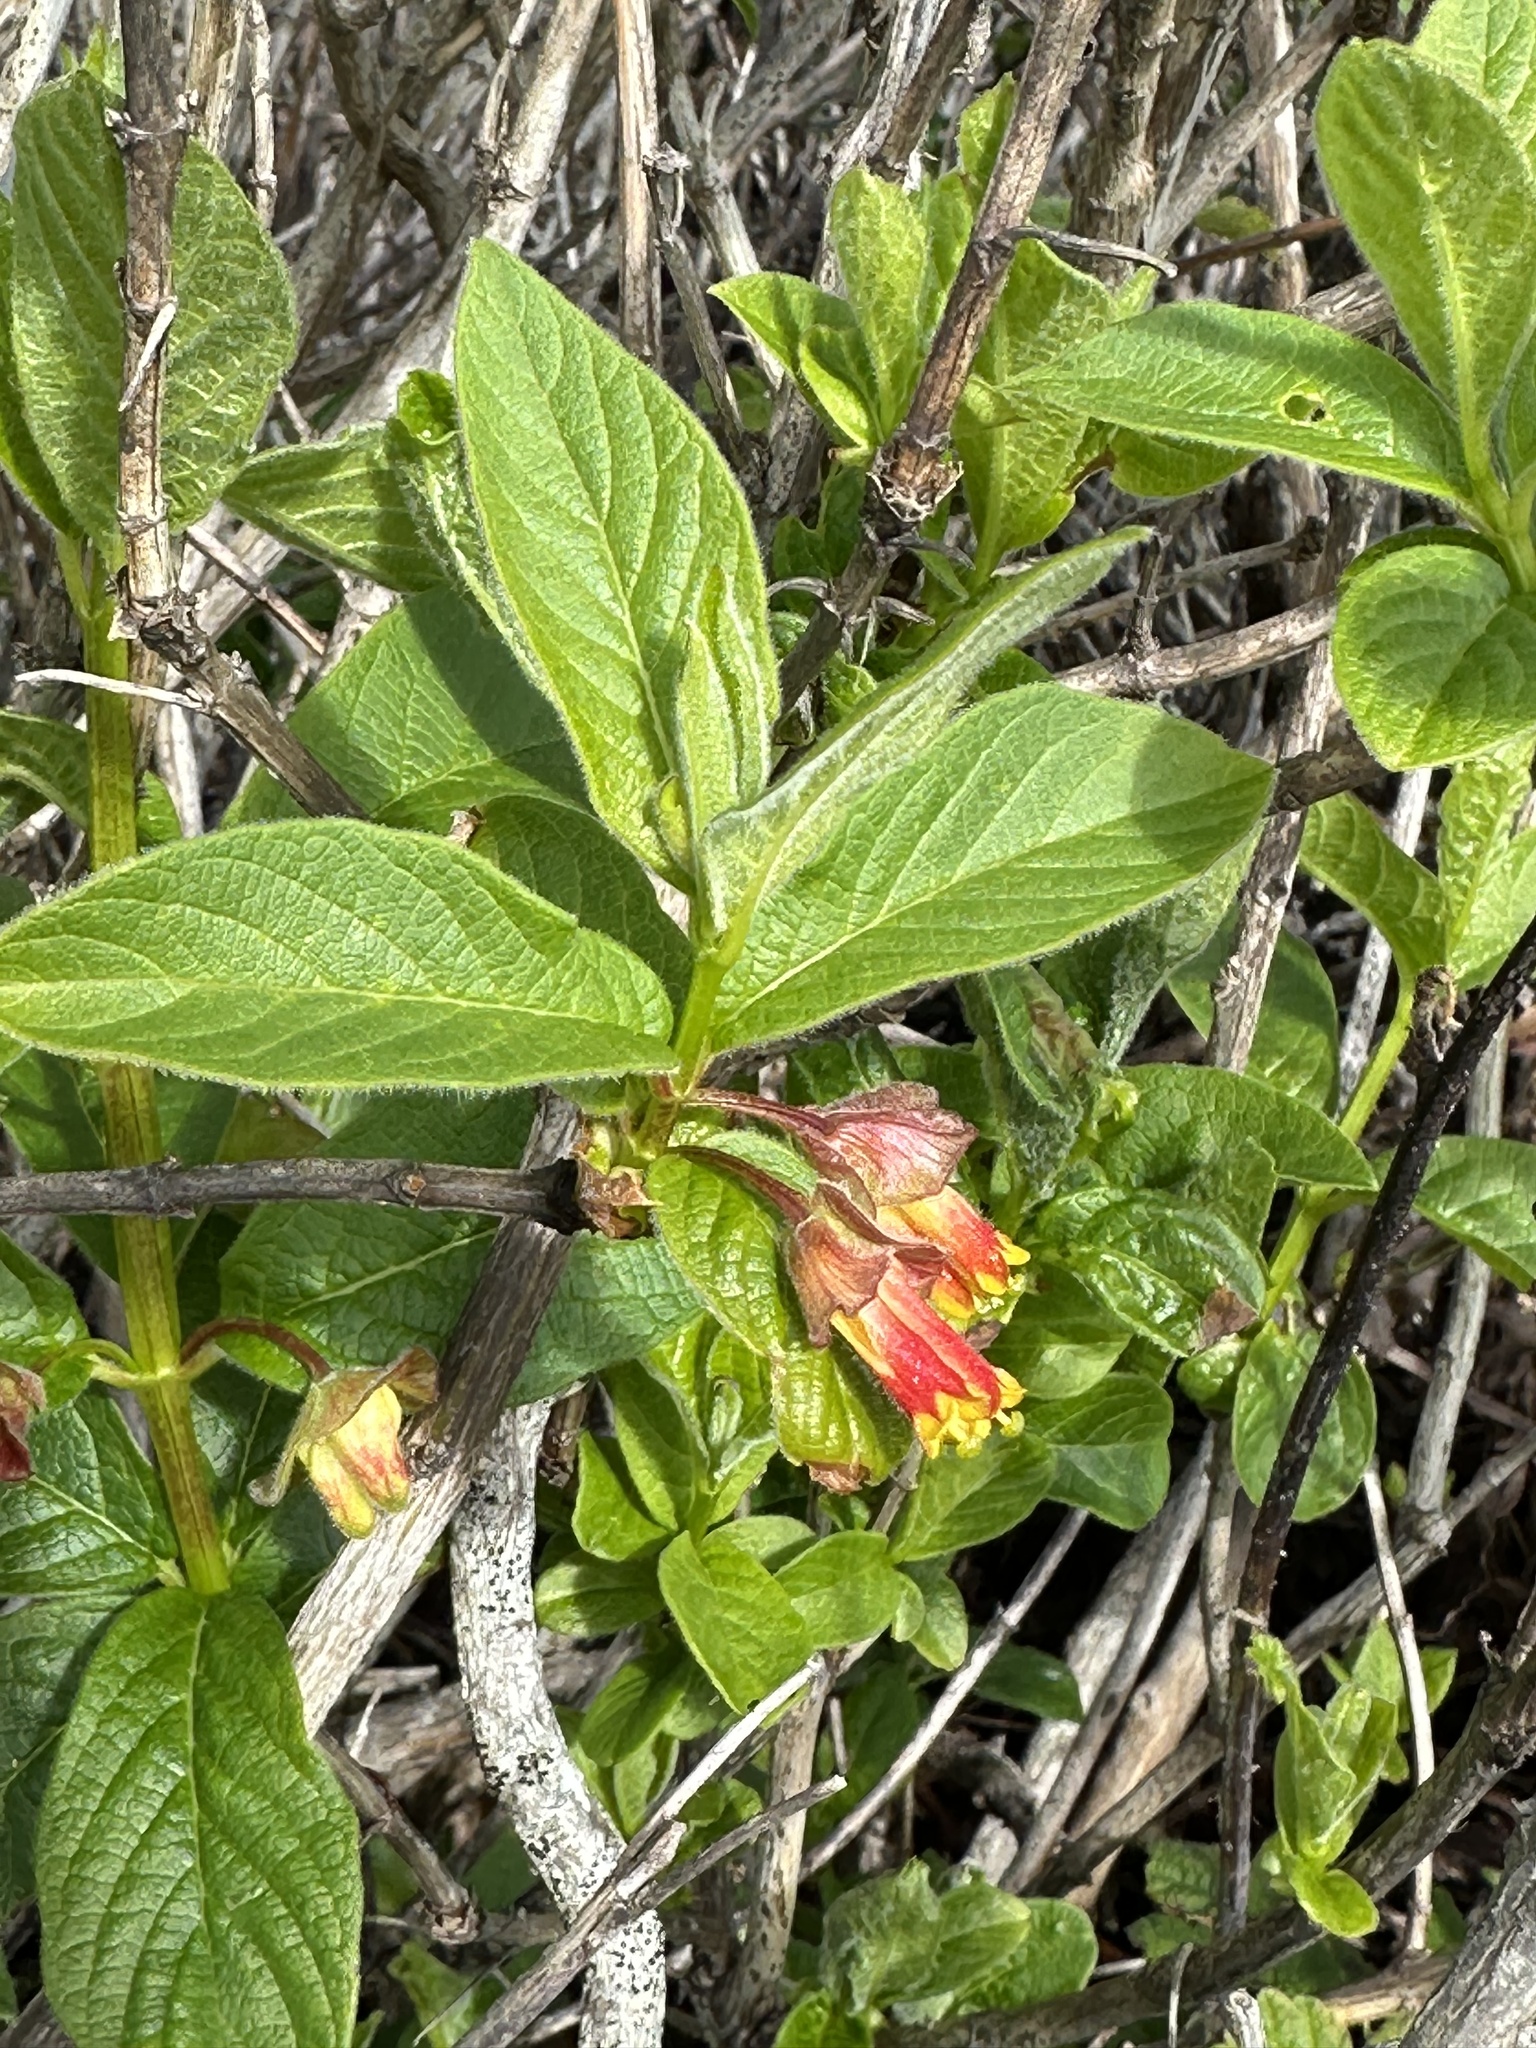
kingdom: Plantae
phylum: Tracheophyta
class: Magnoliopsida
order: Dipsacales
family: Caprifoliaceae
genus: Lonicera
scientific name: Lonicera involucrata
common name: Californian honeysuckle
